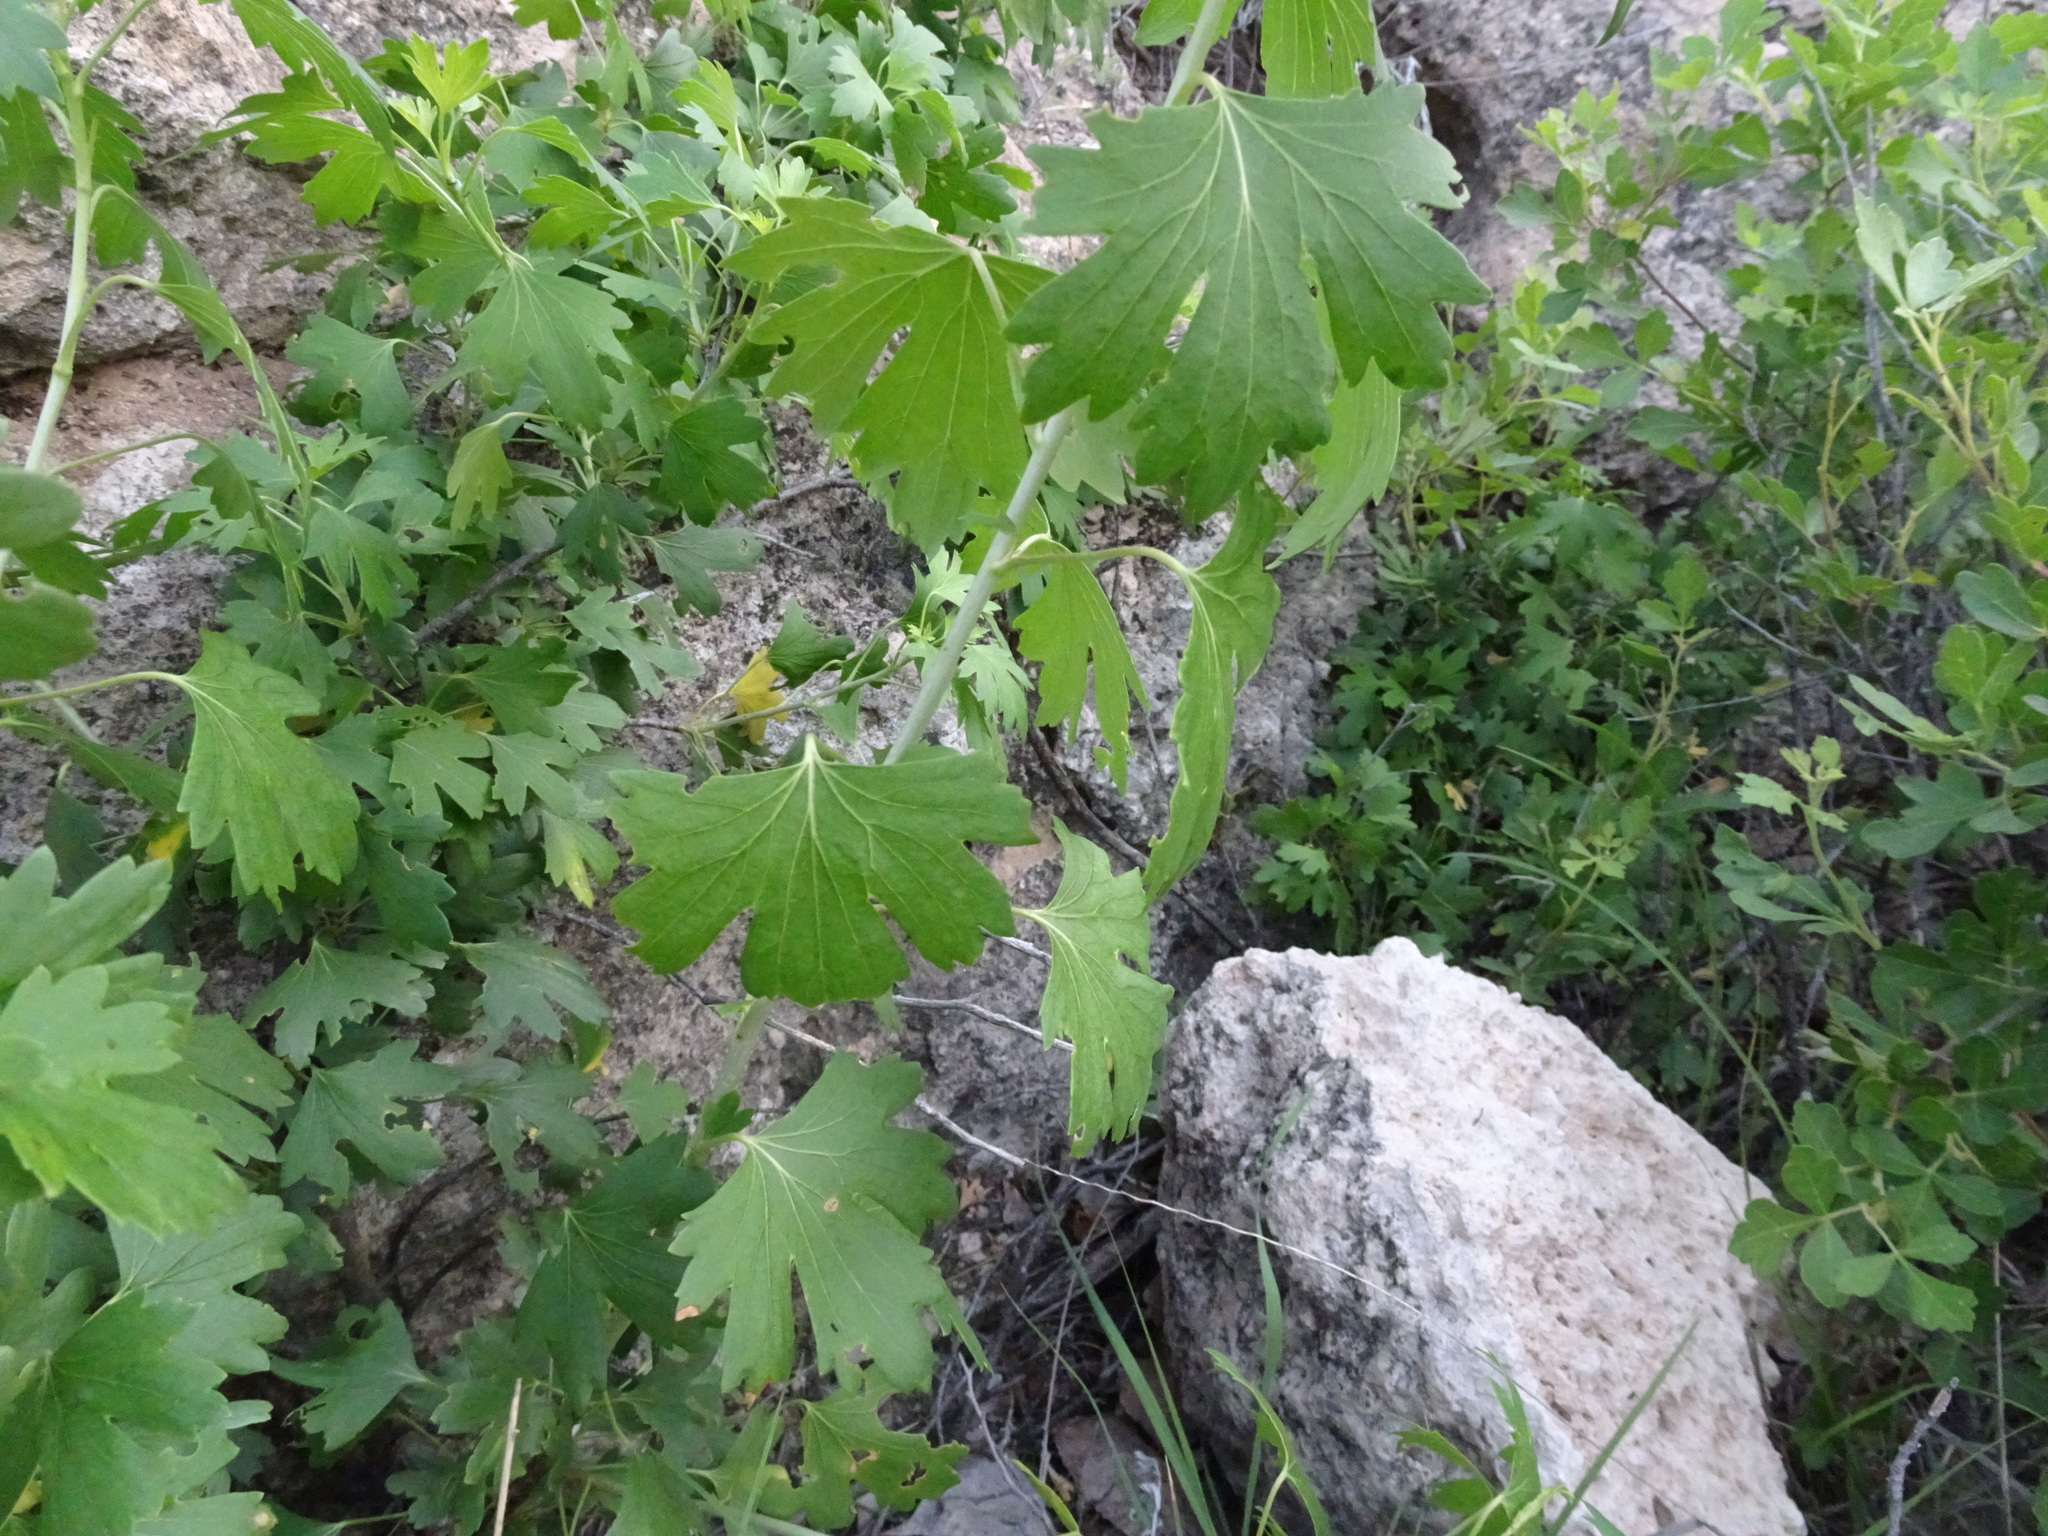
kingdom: Plantae
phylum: Tracheophyta
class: Magnoliopsida
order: Saxifragales
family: Grossulariaceae
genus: Ribes
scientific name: Ribes aureum
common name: Golden currant
